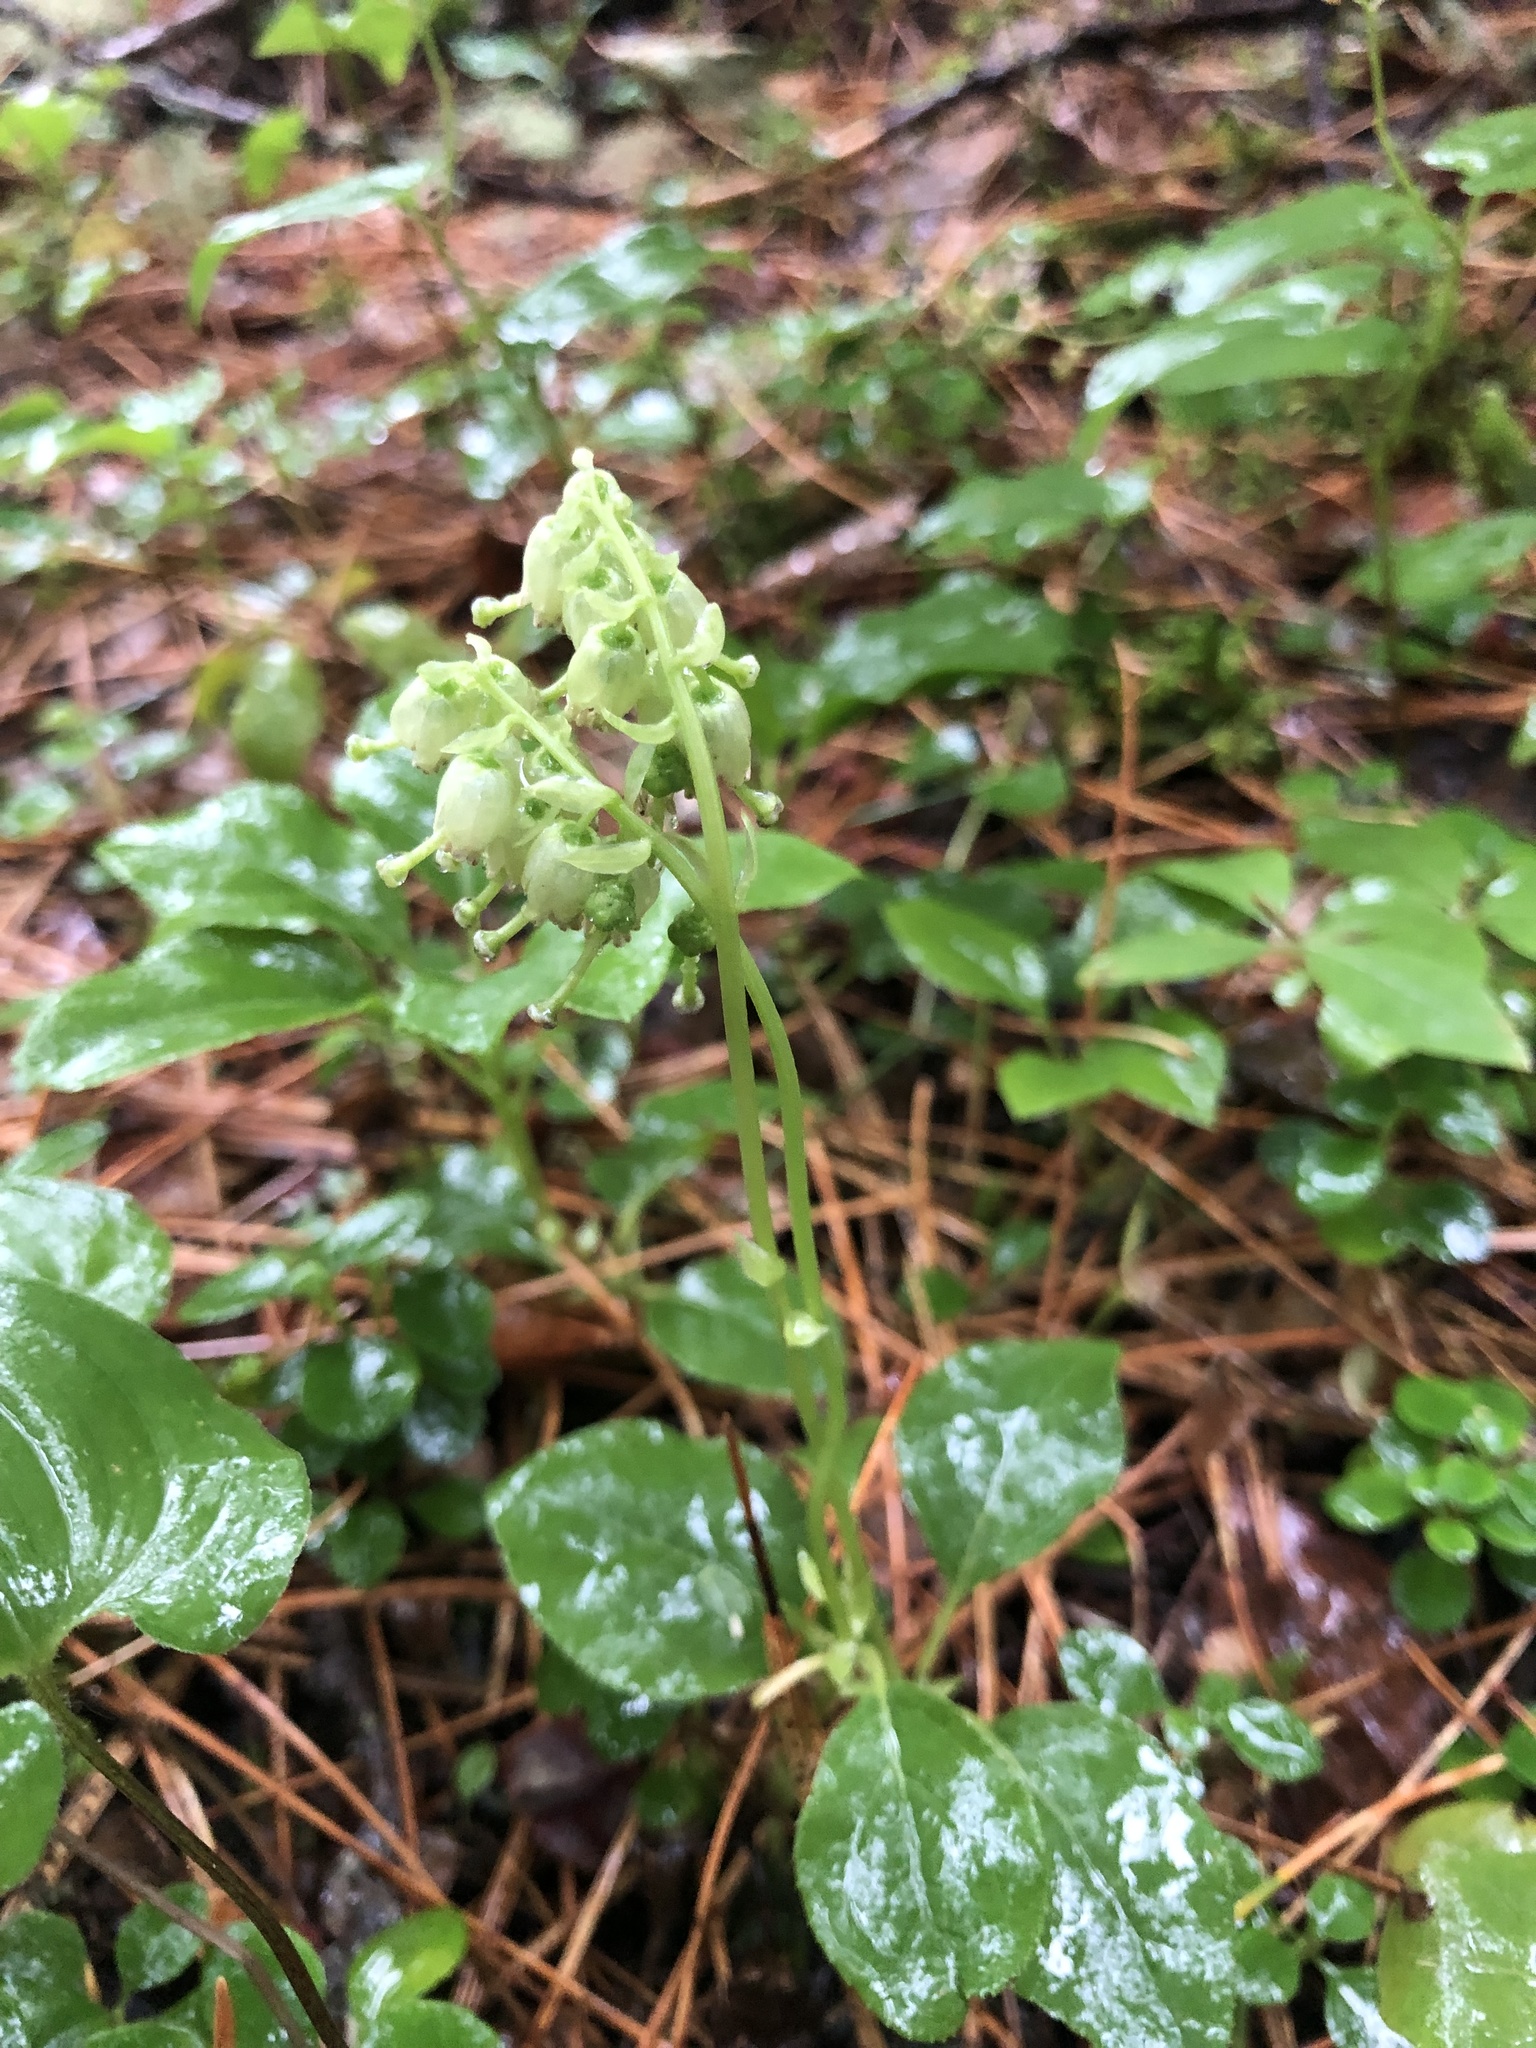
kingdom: Plantae
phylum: Tracheophyta
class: Magnoliopsida
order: Ericales
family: Ericaceae
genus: Orthilia
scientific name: Orthilia secunda
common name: One-sided orthilia
